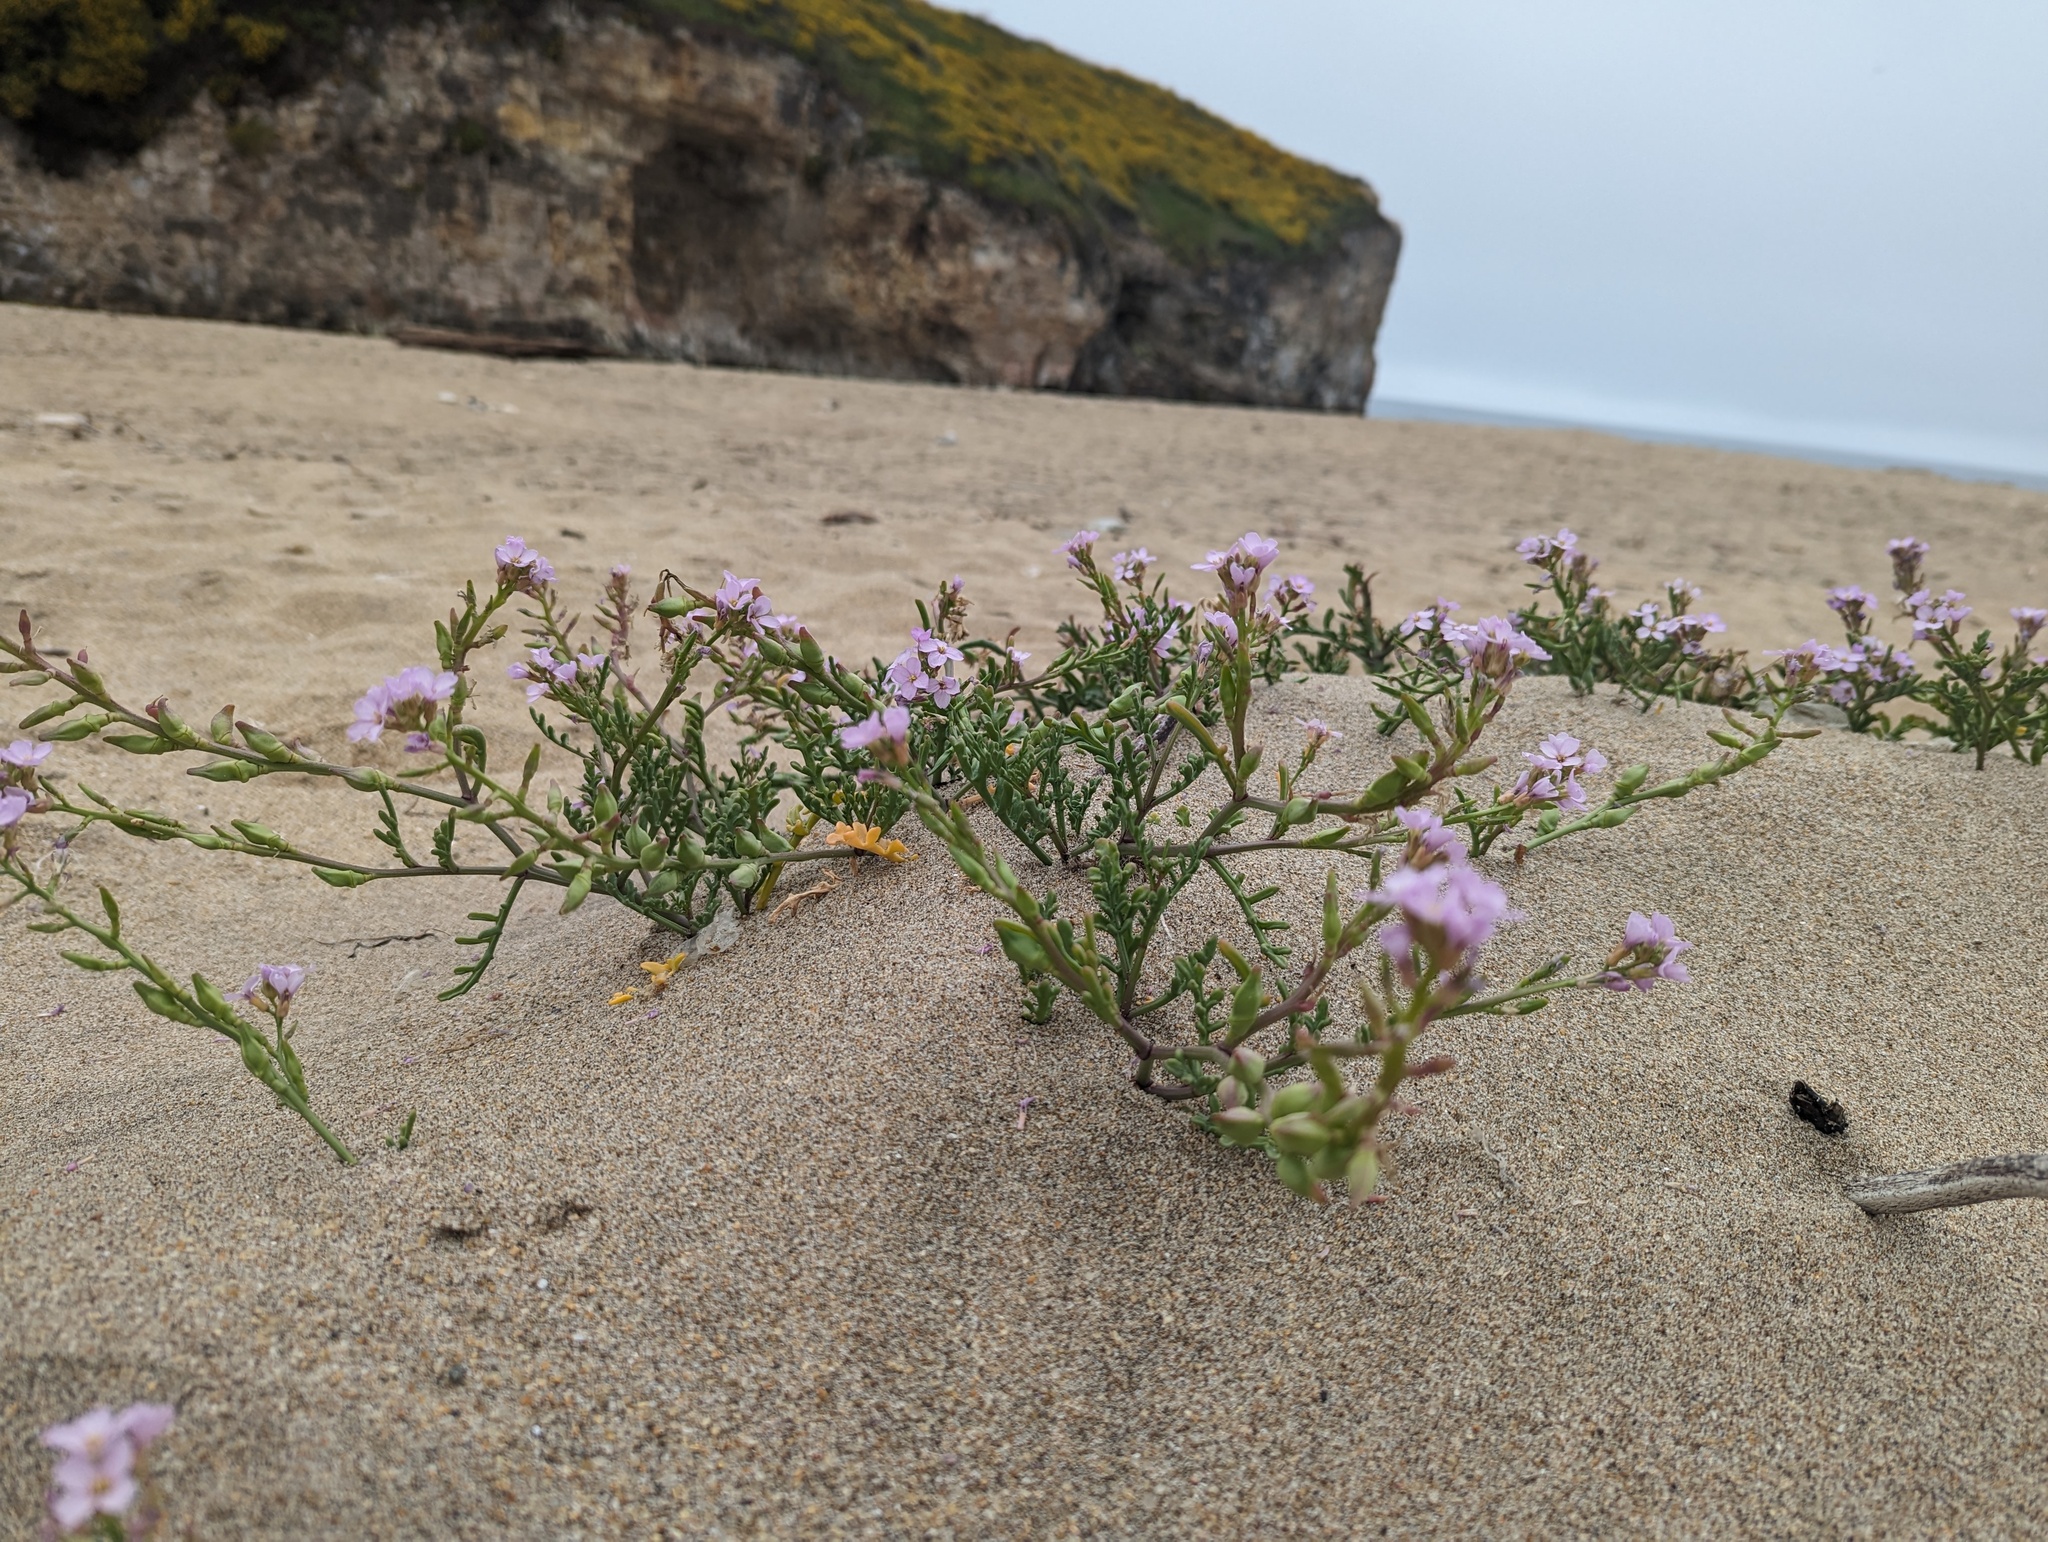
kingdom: Plantae
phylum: Tracheophyta
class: Magnoliopsida
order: Brassicales
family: Brassicaceae
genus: Cakile
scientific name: Cakile maritima
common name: Sea rocket
